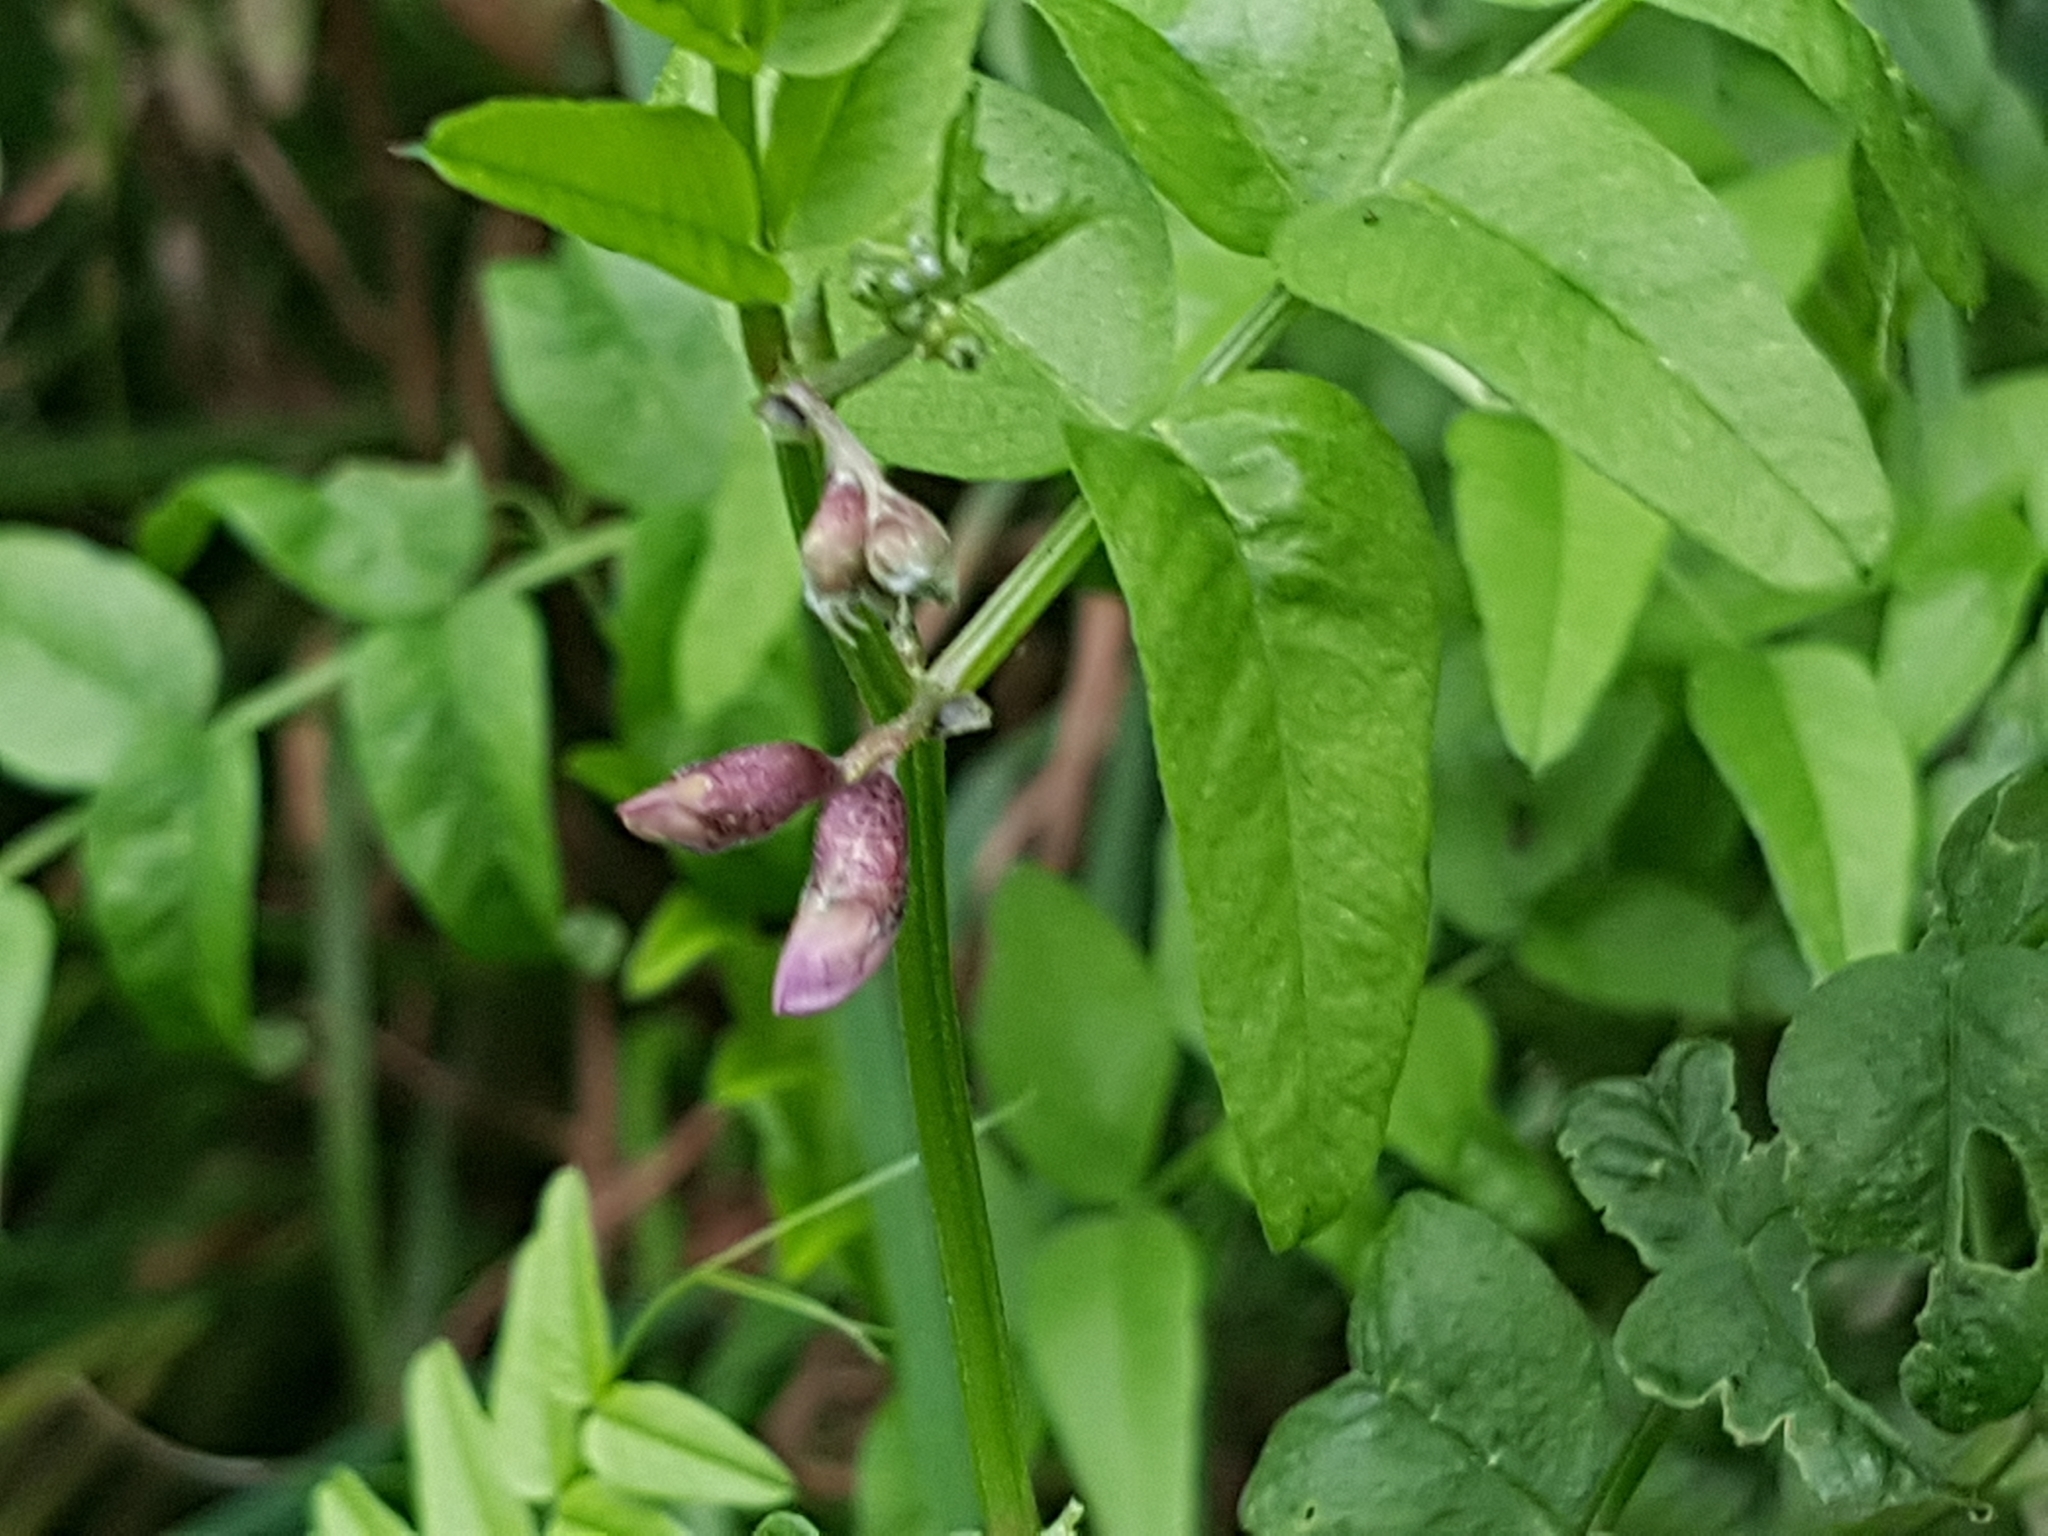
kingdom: Plantae
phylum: Tracheophyta
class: Magnoliopsida
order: Fabales
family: Fabaceae
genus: Vicia
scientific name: Vicia sepium
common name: Bush vetch
